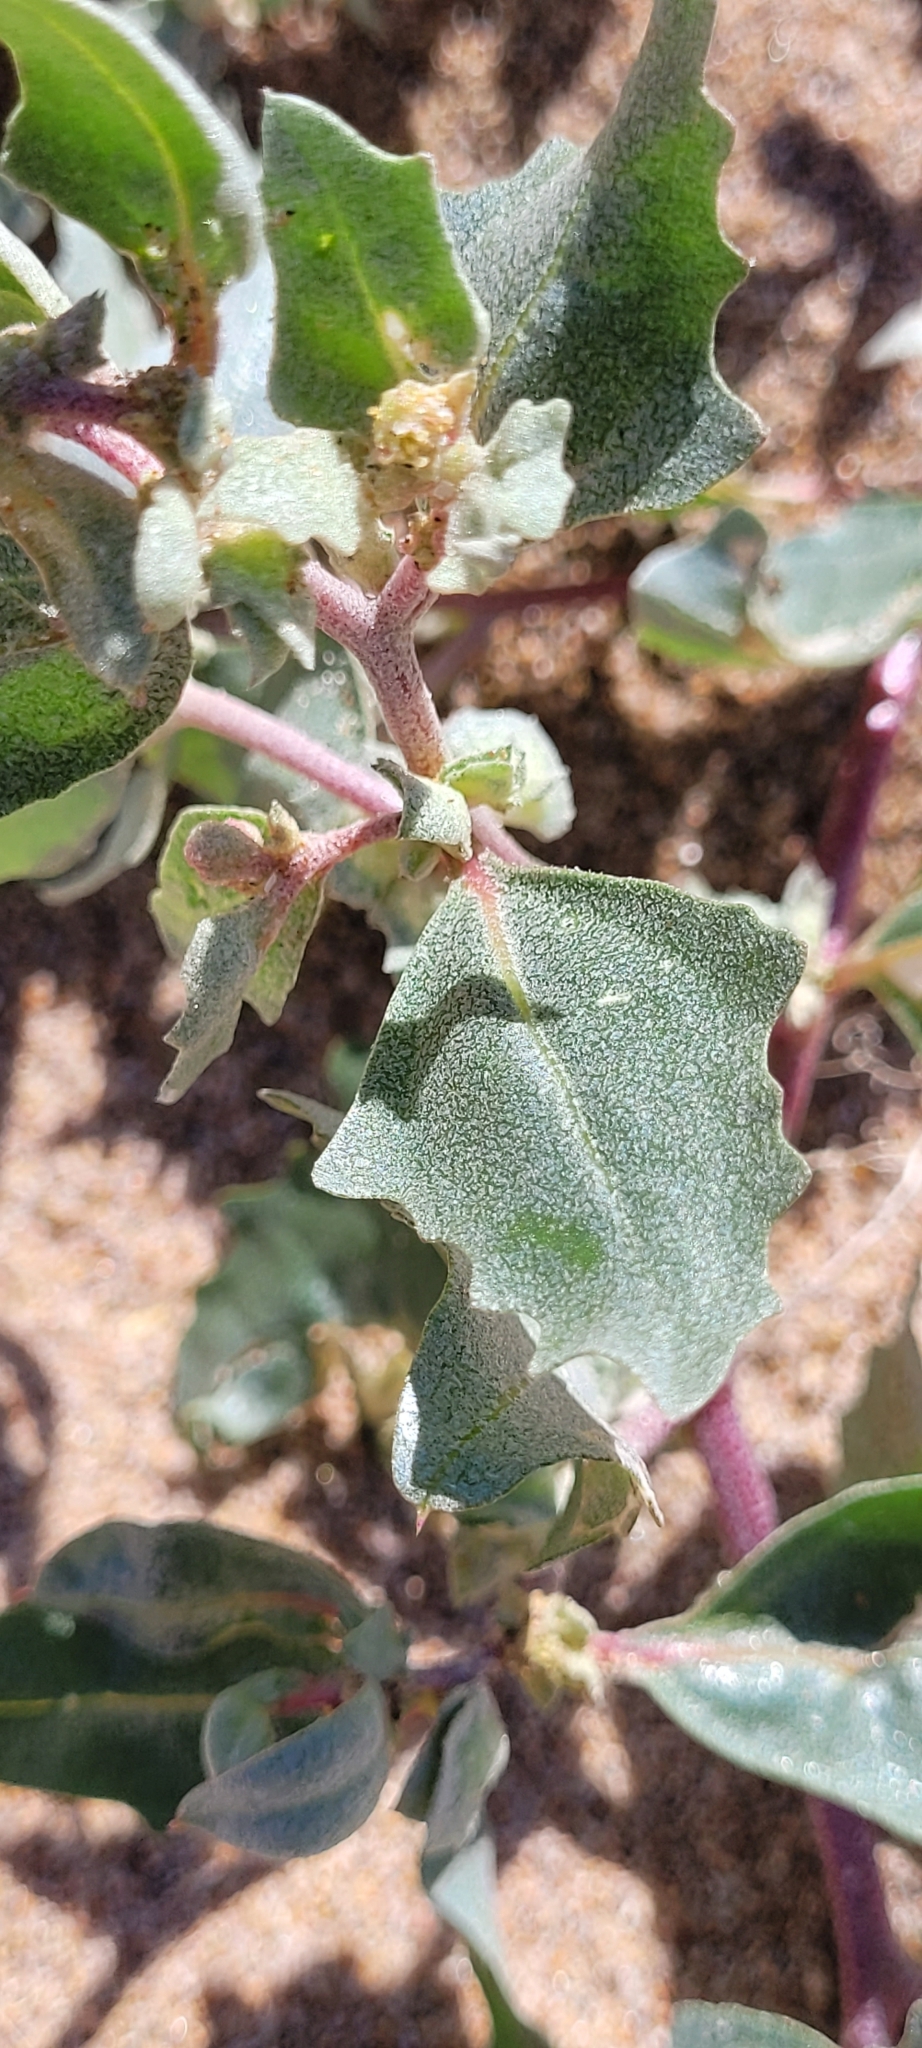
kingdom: Plantae
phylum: Tracheophyta
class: Magnoliopsida
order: Caryophyllales
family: Amaranthaceae
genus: Atriplex
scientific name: Atriplex laciniata
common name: Frosted orache
